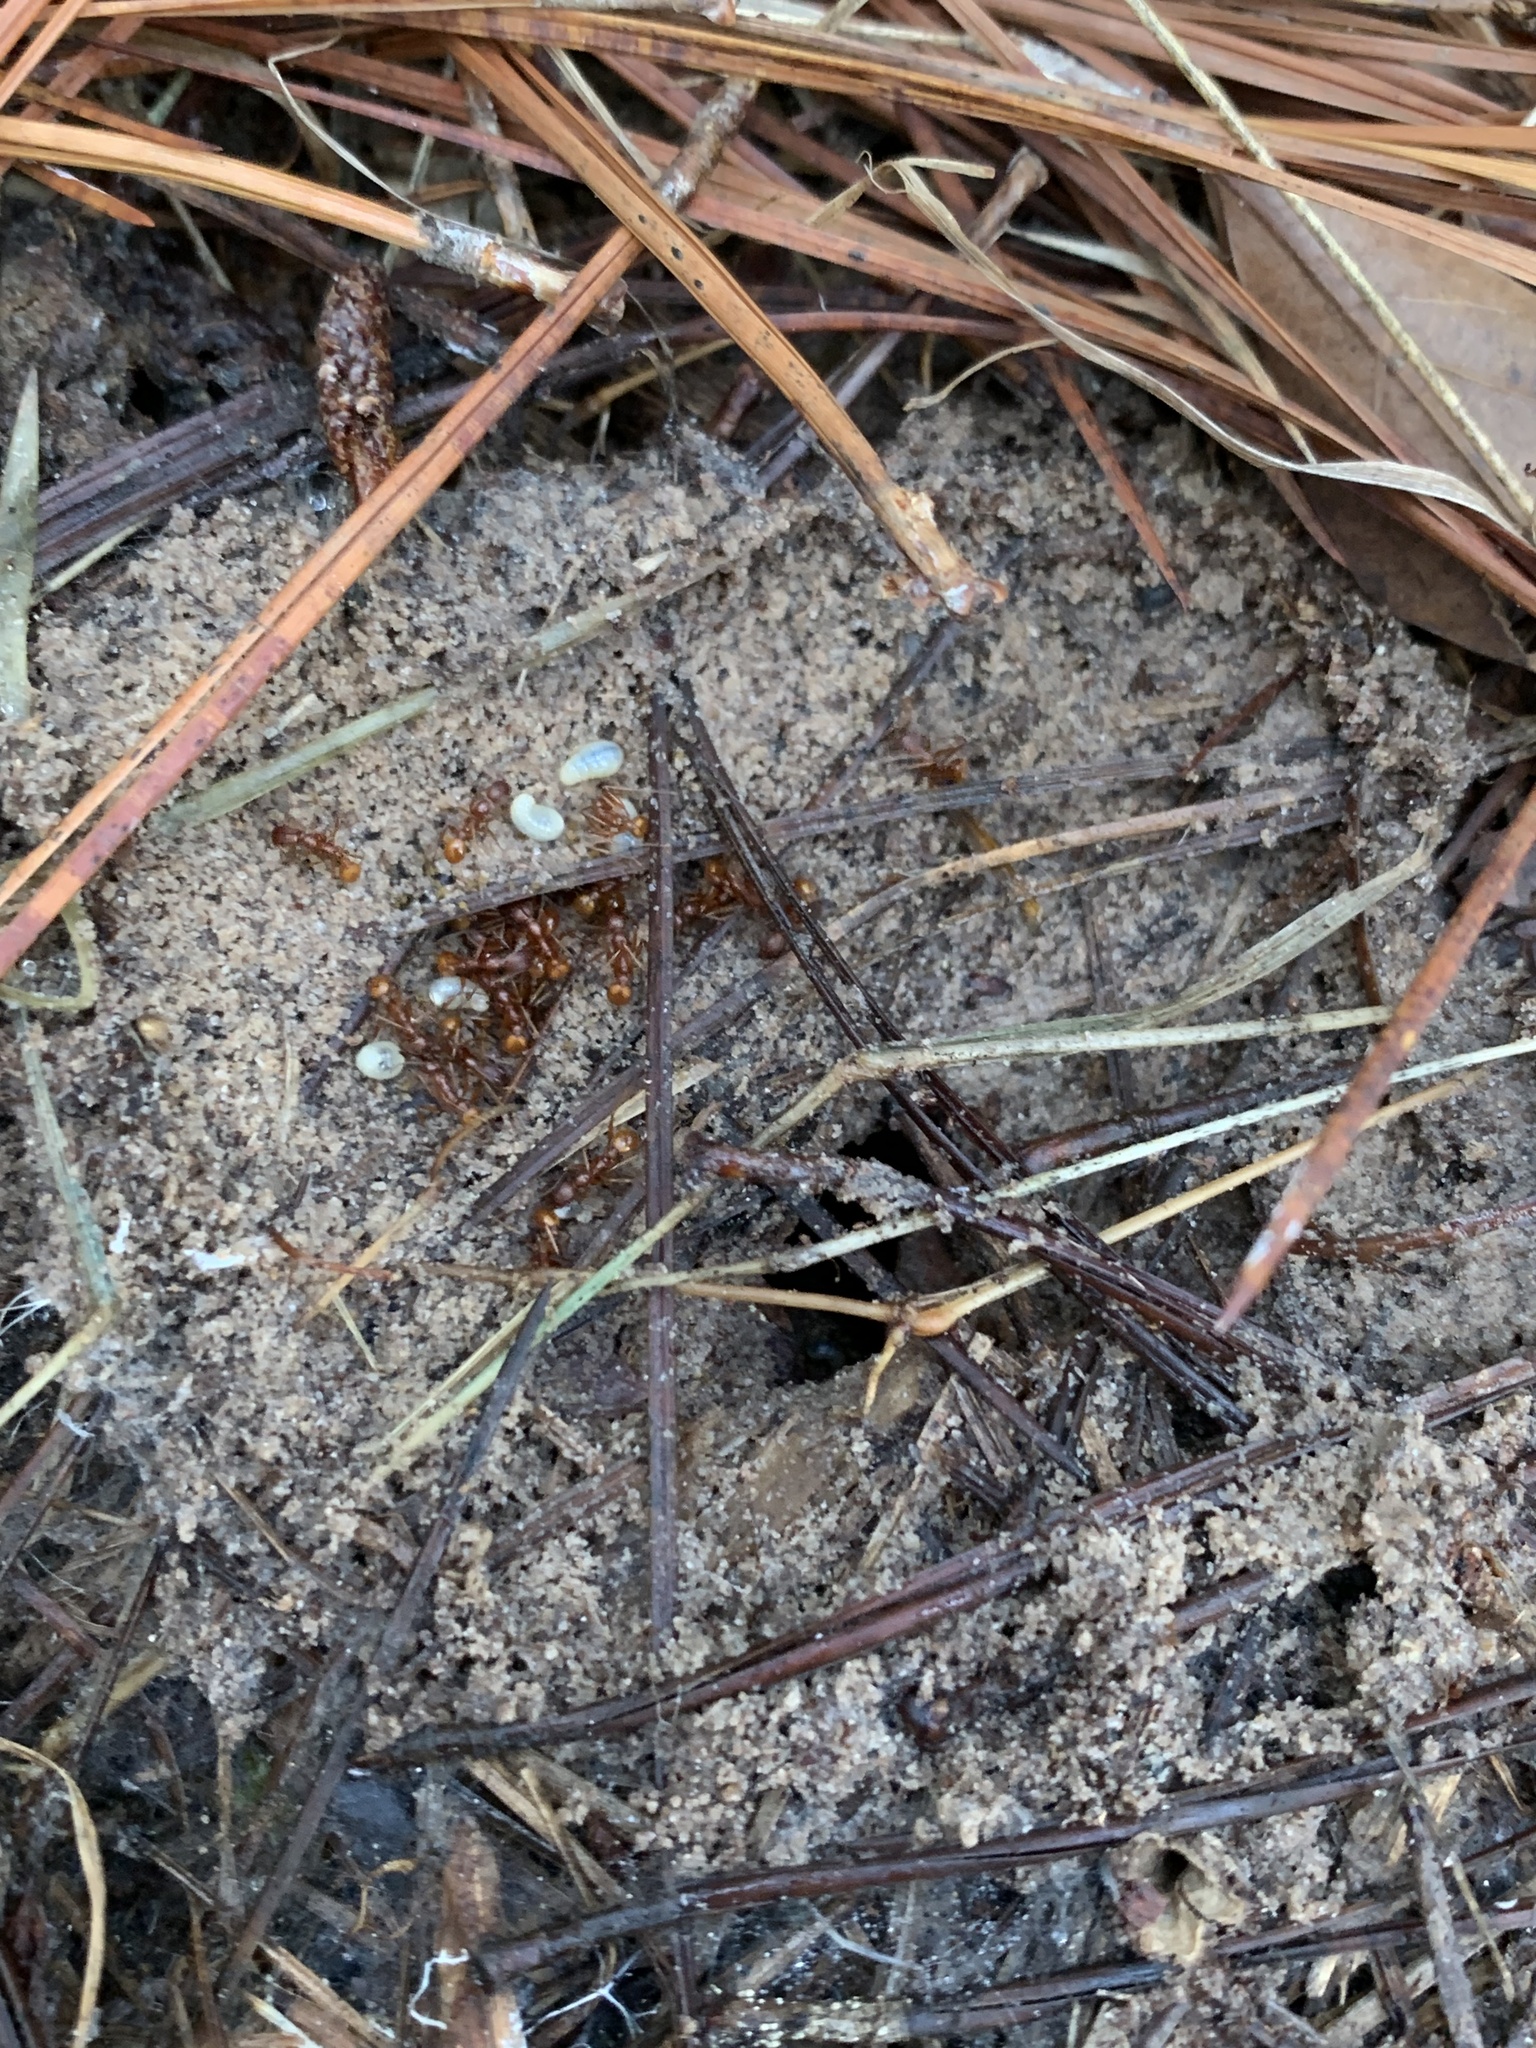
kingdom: Animalia
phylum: Arthropoda
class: Insecta
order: Hymenoptera
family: Formicidae
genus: Aphaenogaster
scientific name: Aphaenogaster texana
